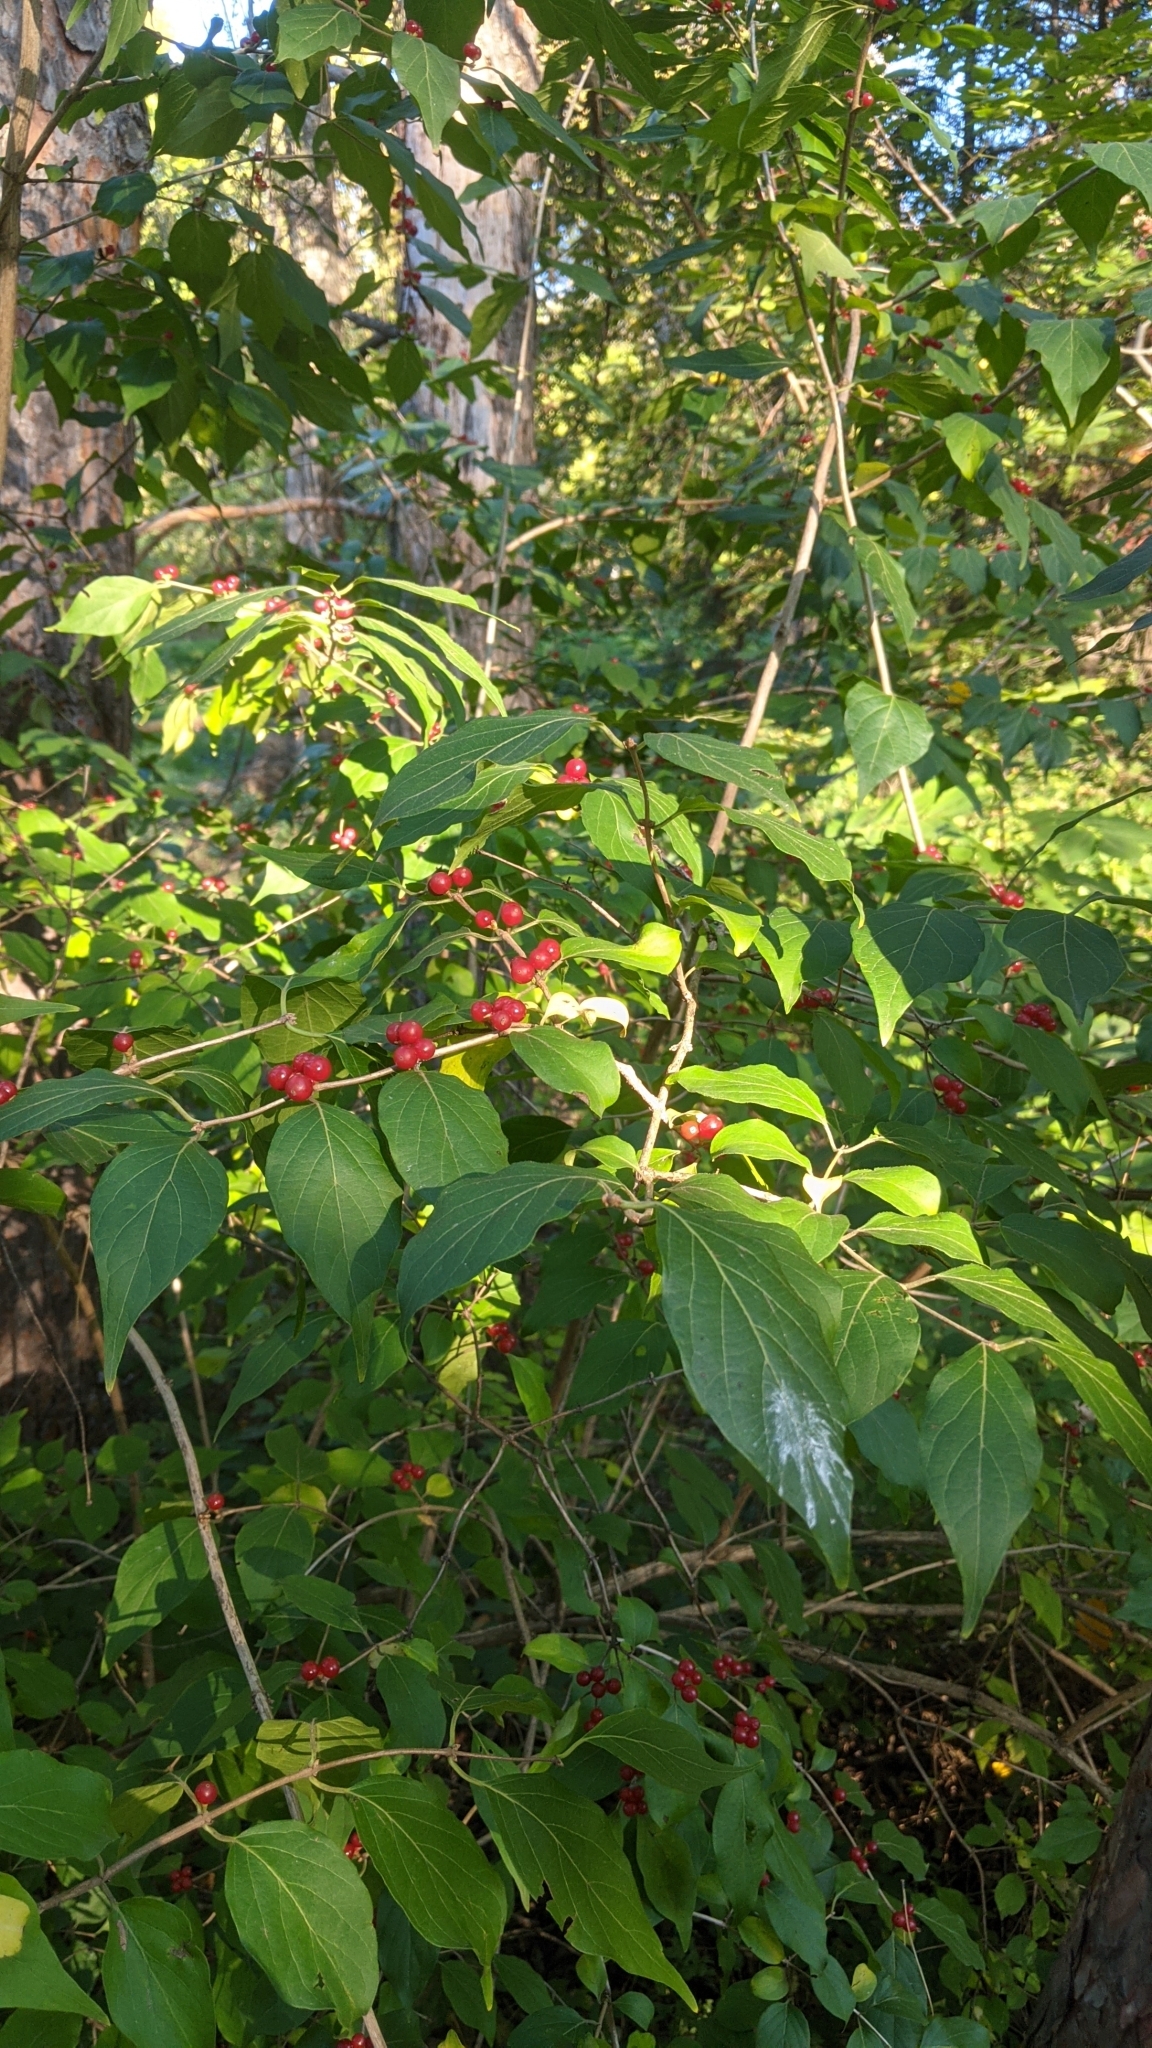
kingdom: Plantae
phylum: Tracheophyta
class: Magnoliopsida
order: Dipsacales
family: Caprifoliaceae
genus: Lonicera
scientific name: Lonicera maackii
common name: Amur honeysuckle
